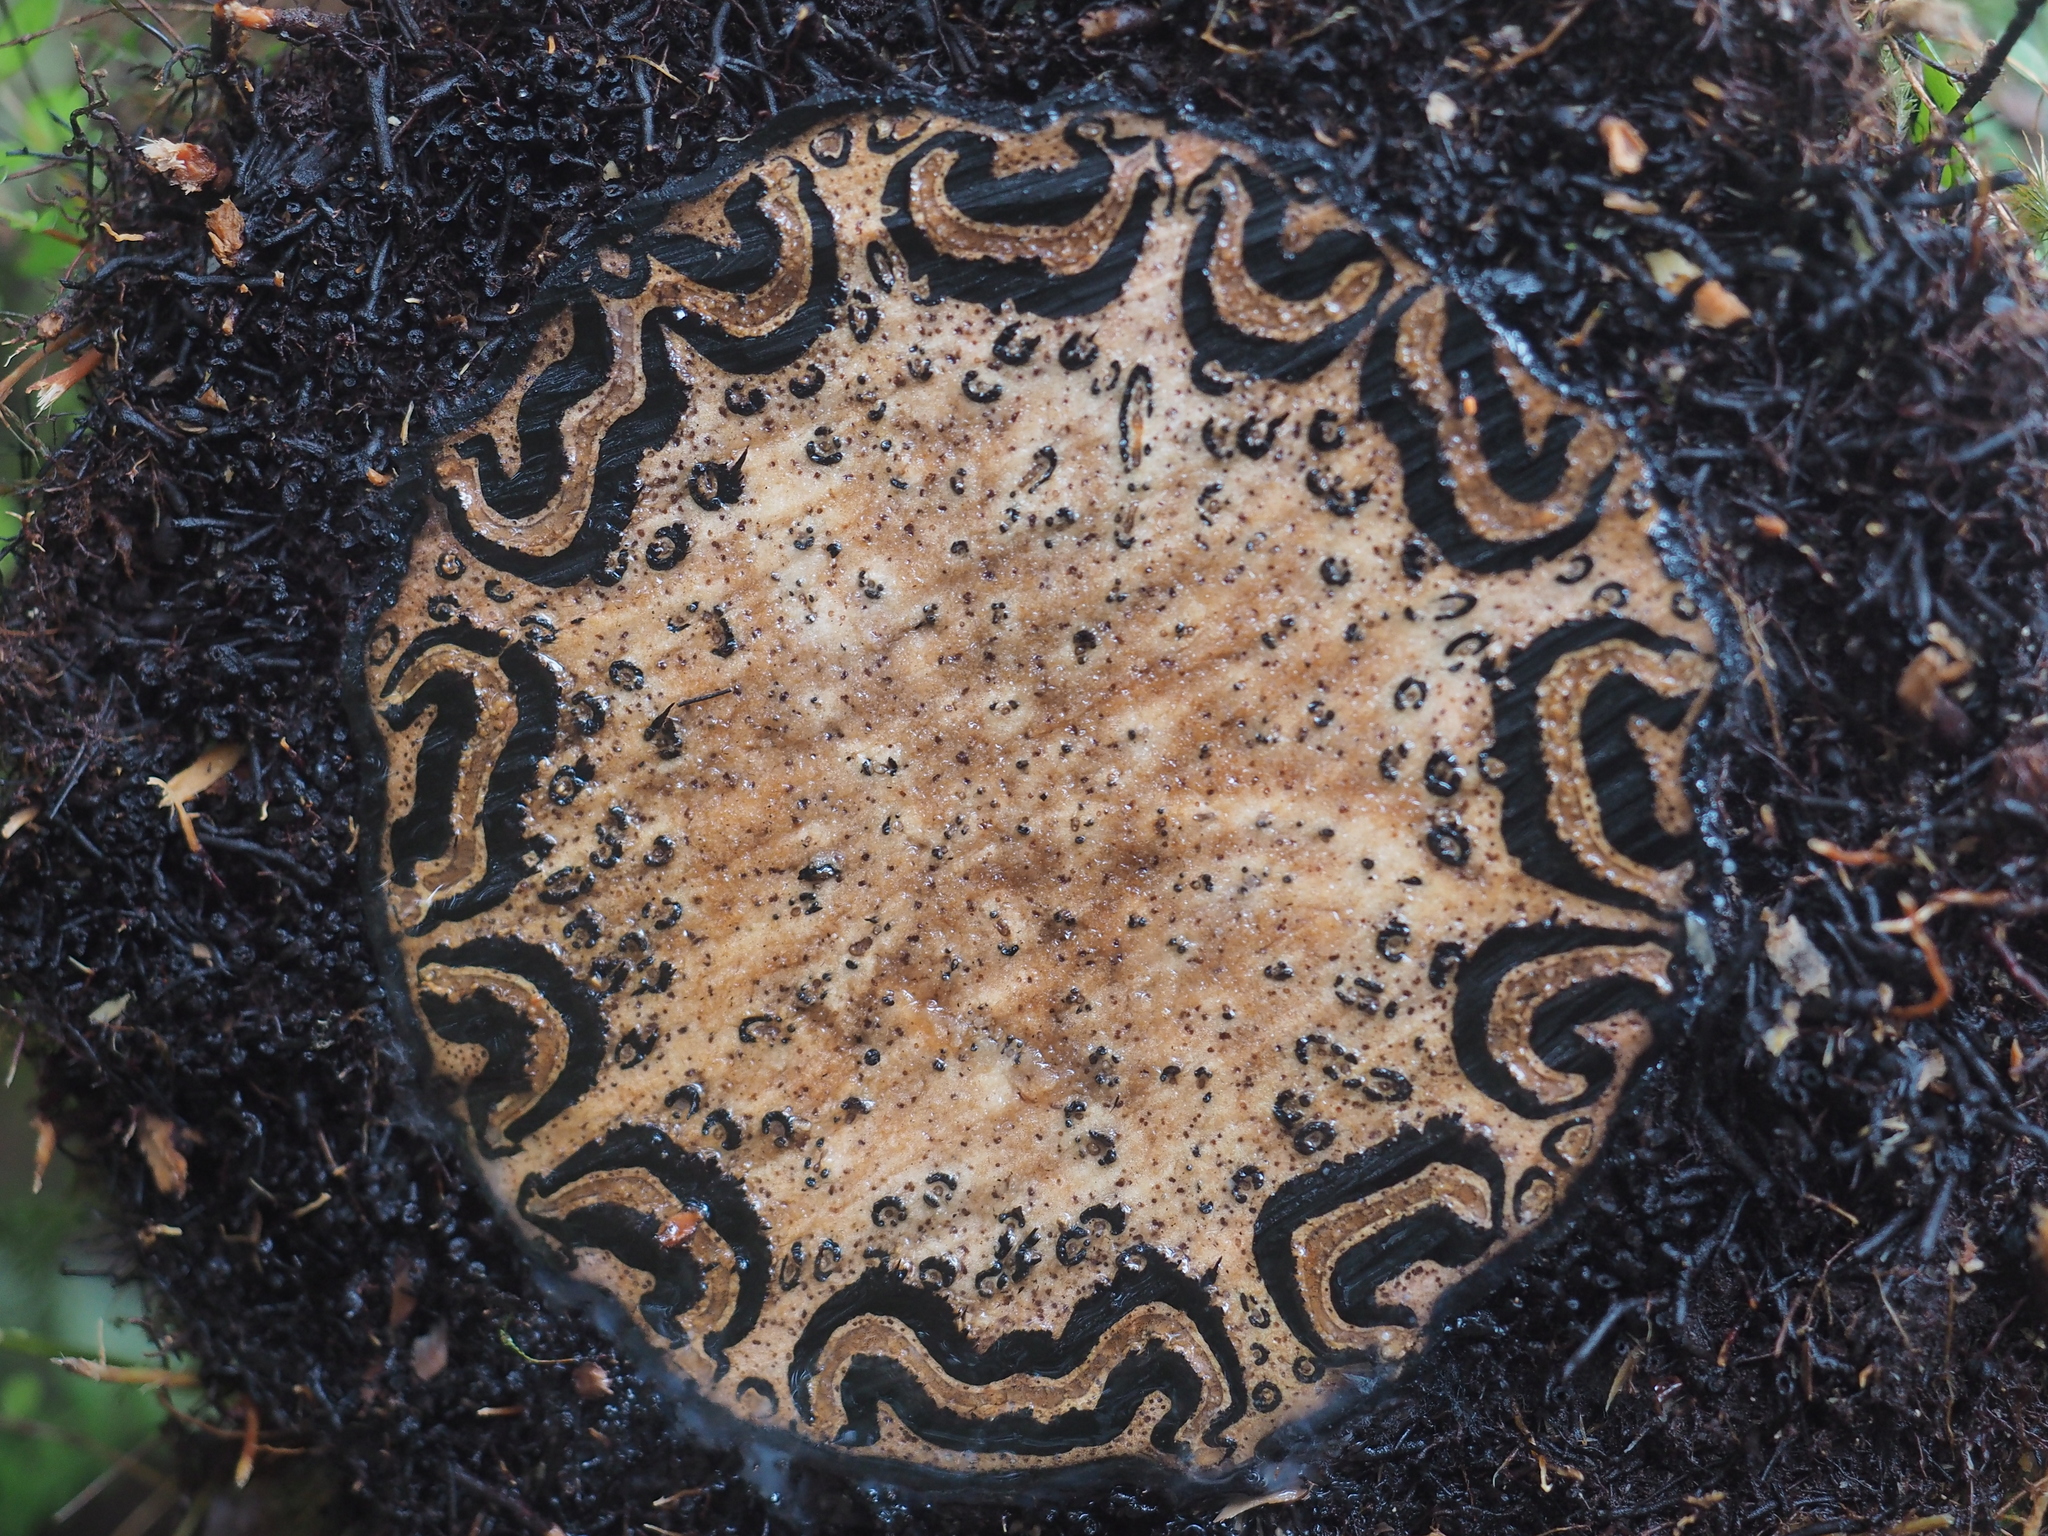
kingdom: Plantae
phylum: Tracheophyta
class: Polypodiopsida
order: Cyatheales
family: Cyatheaceae
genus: Sphaeropteris
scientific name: Sphaeropteris medullaris
